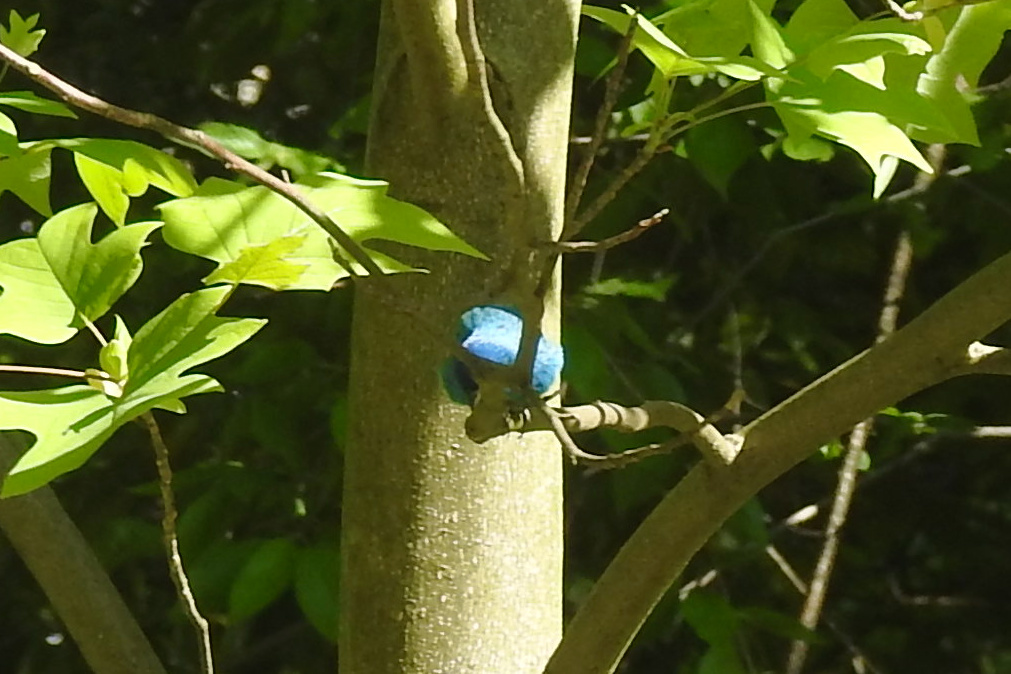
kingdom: Animalia
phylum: Chordata
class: Aves
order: Passeriformes
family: Cardinalidae
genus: Passerina
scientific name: Passerina cyanea
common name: Indigo bunting
